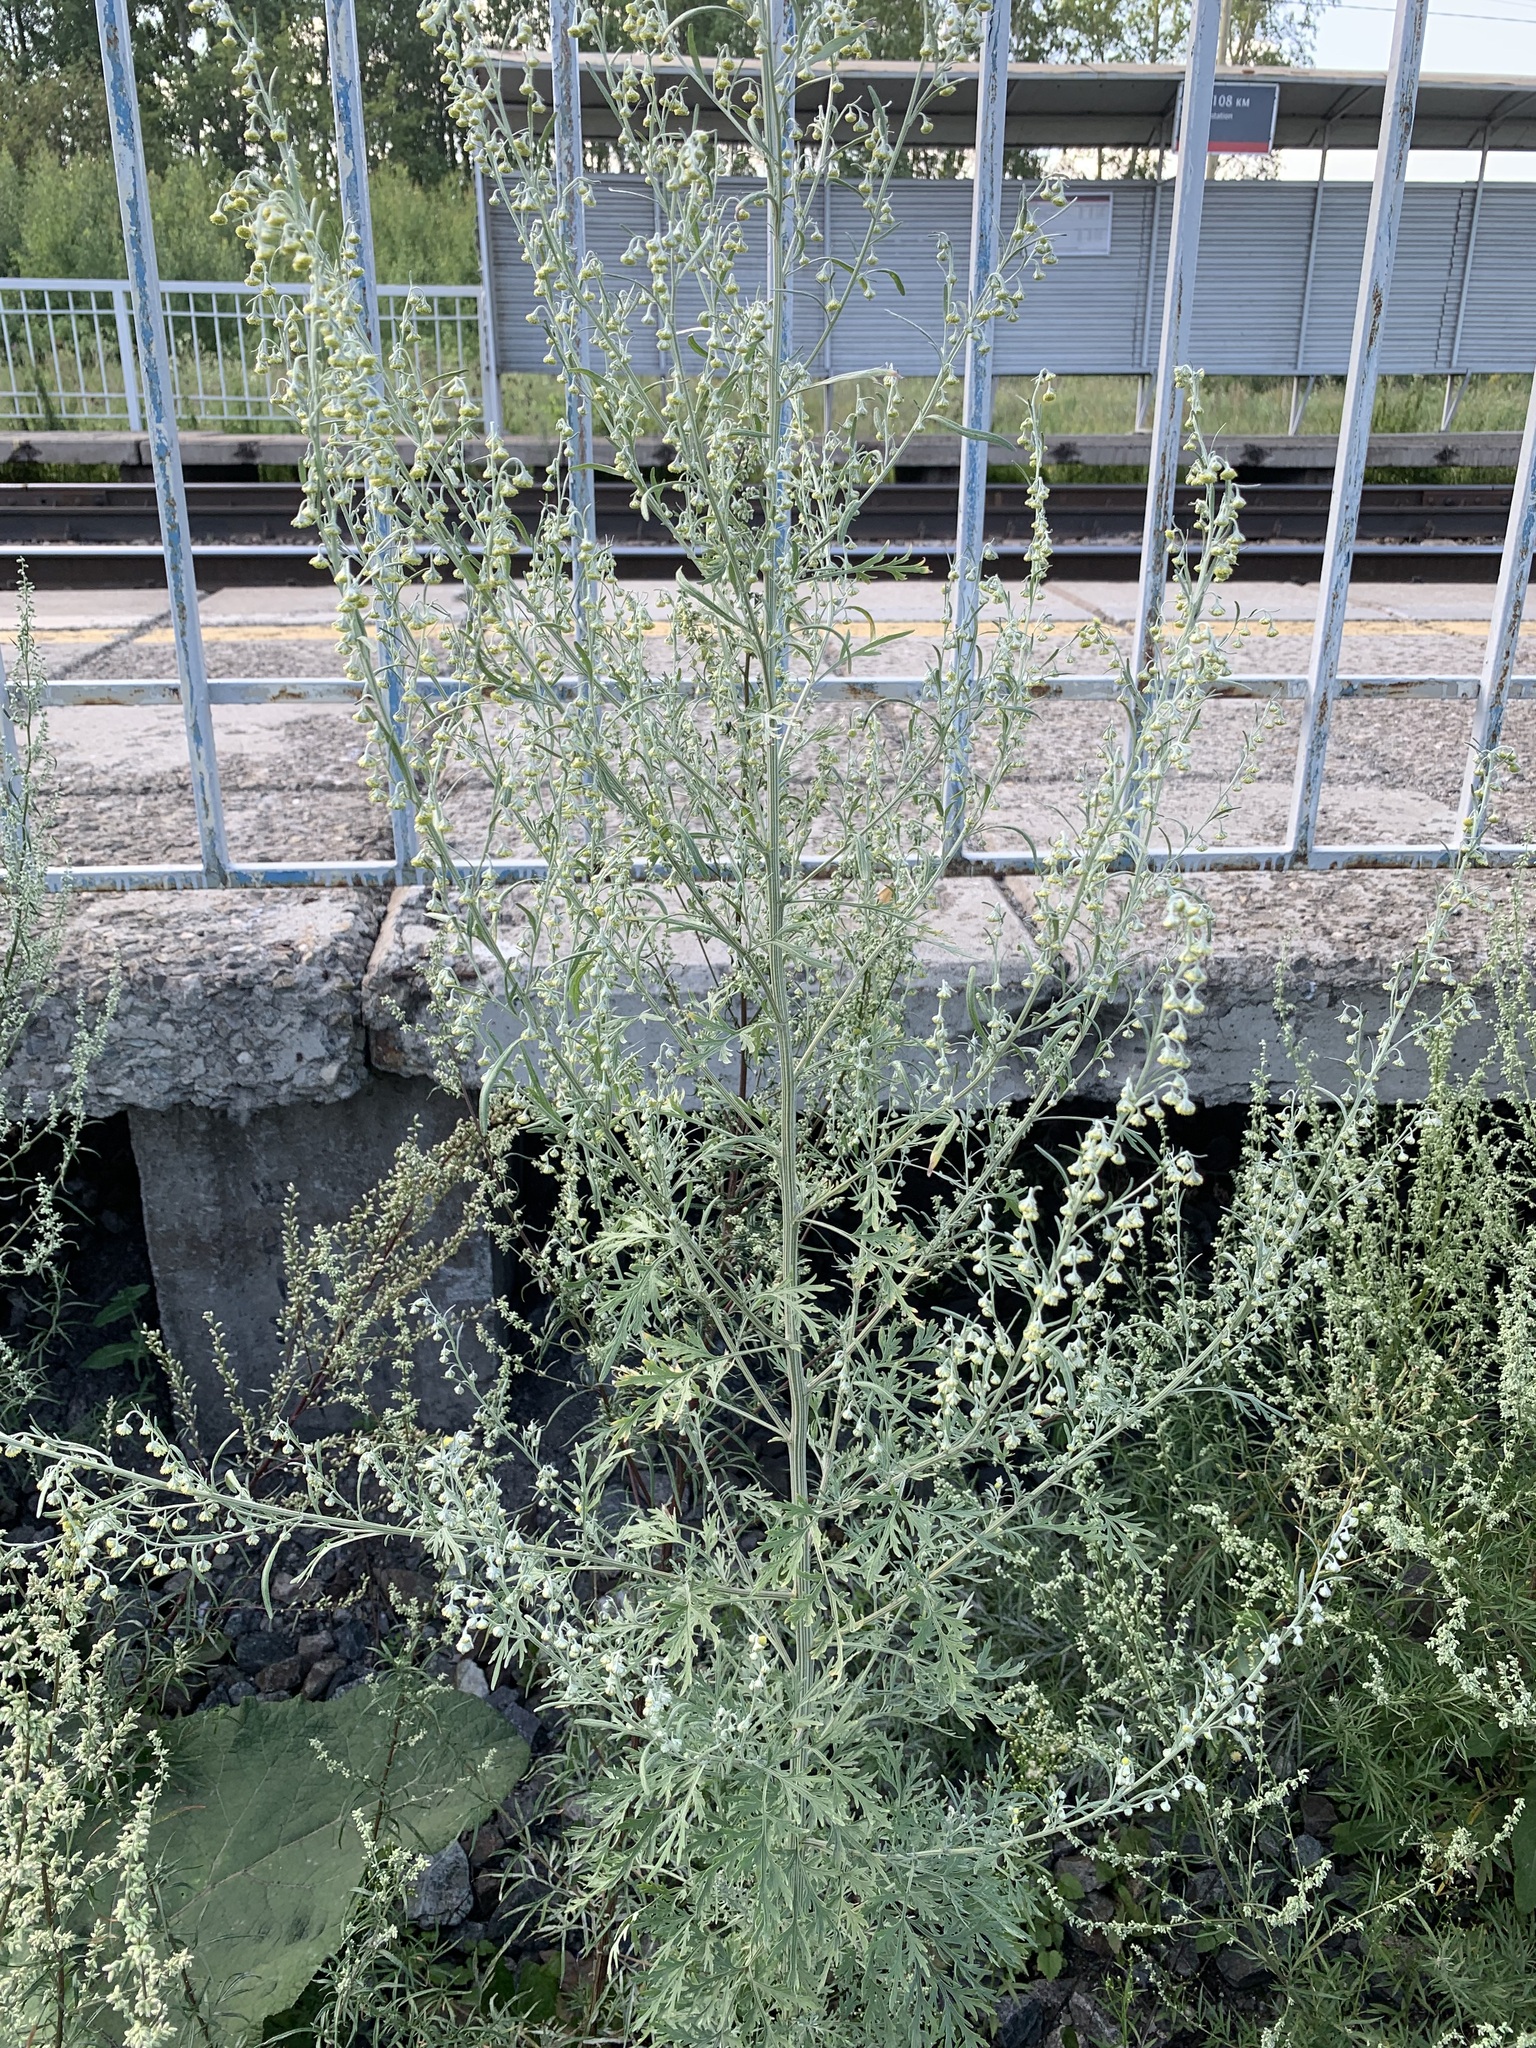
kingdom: Plantae
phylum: Tracheophyta
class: Magnoliopsida
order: Asterales
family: Asteraceae
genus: Artemisia
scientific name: Artemisia sieversiana
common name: Sieversian wormwood
